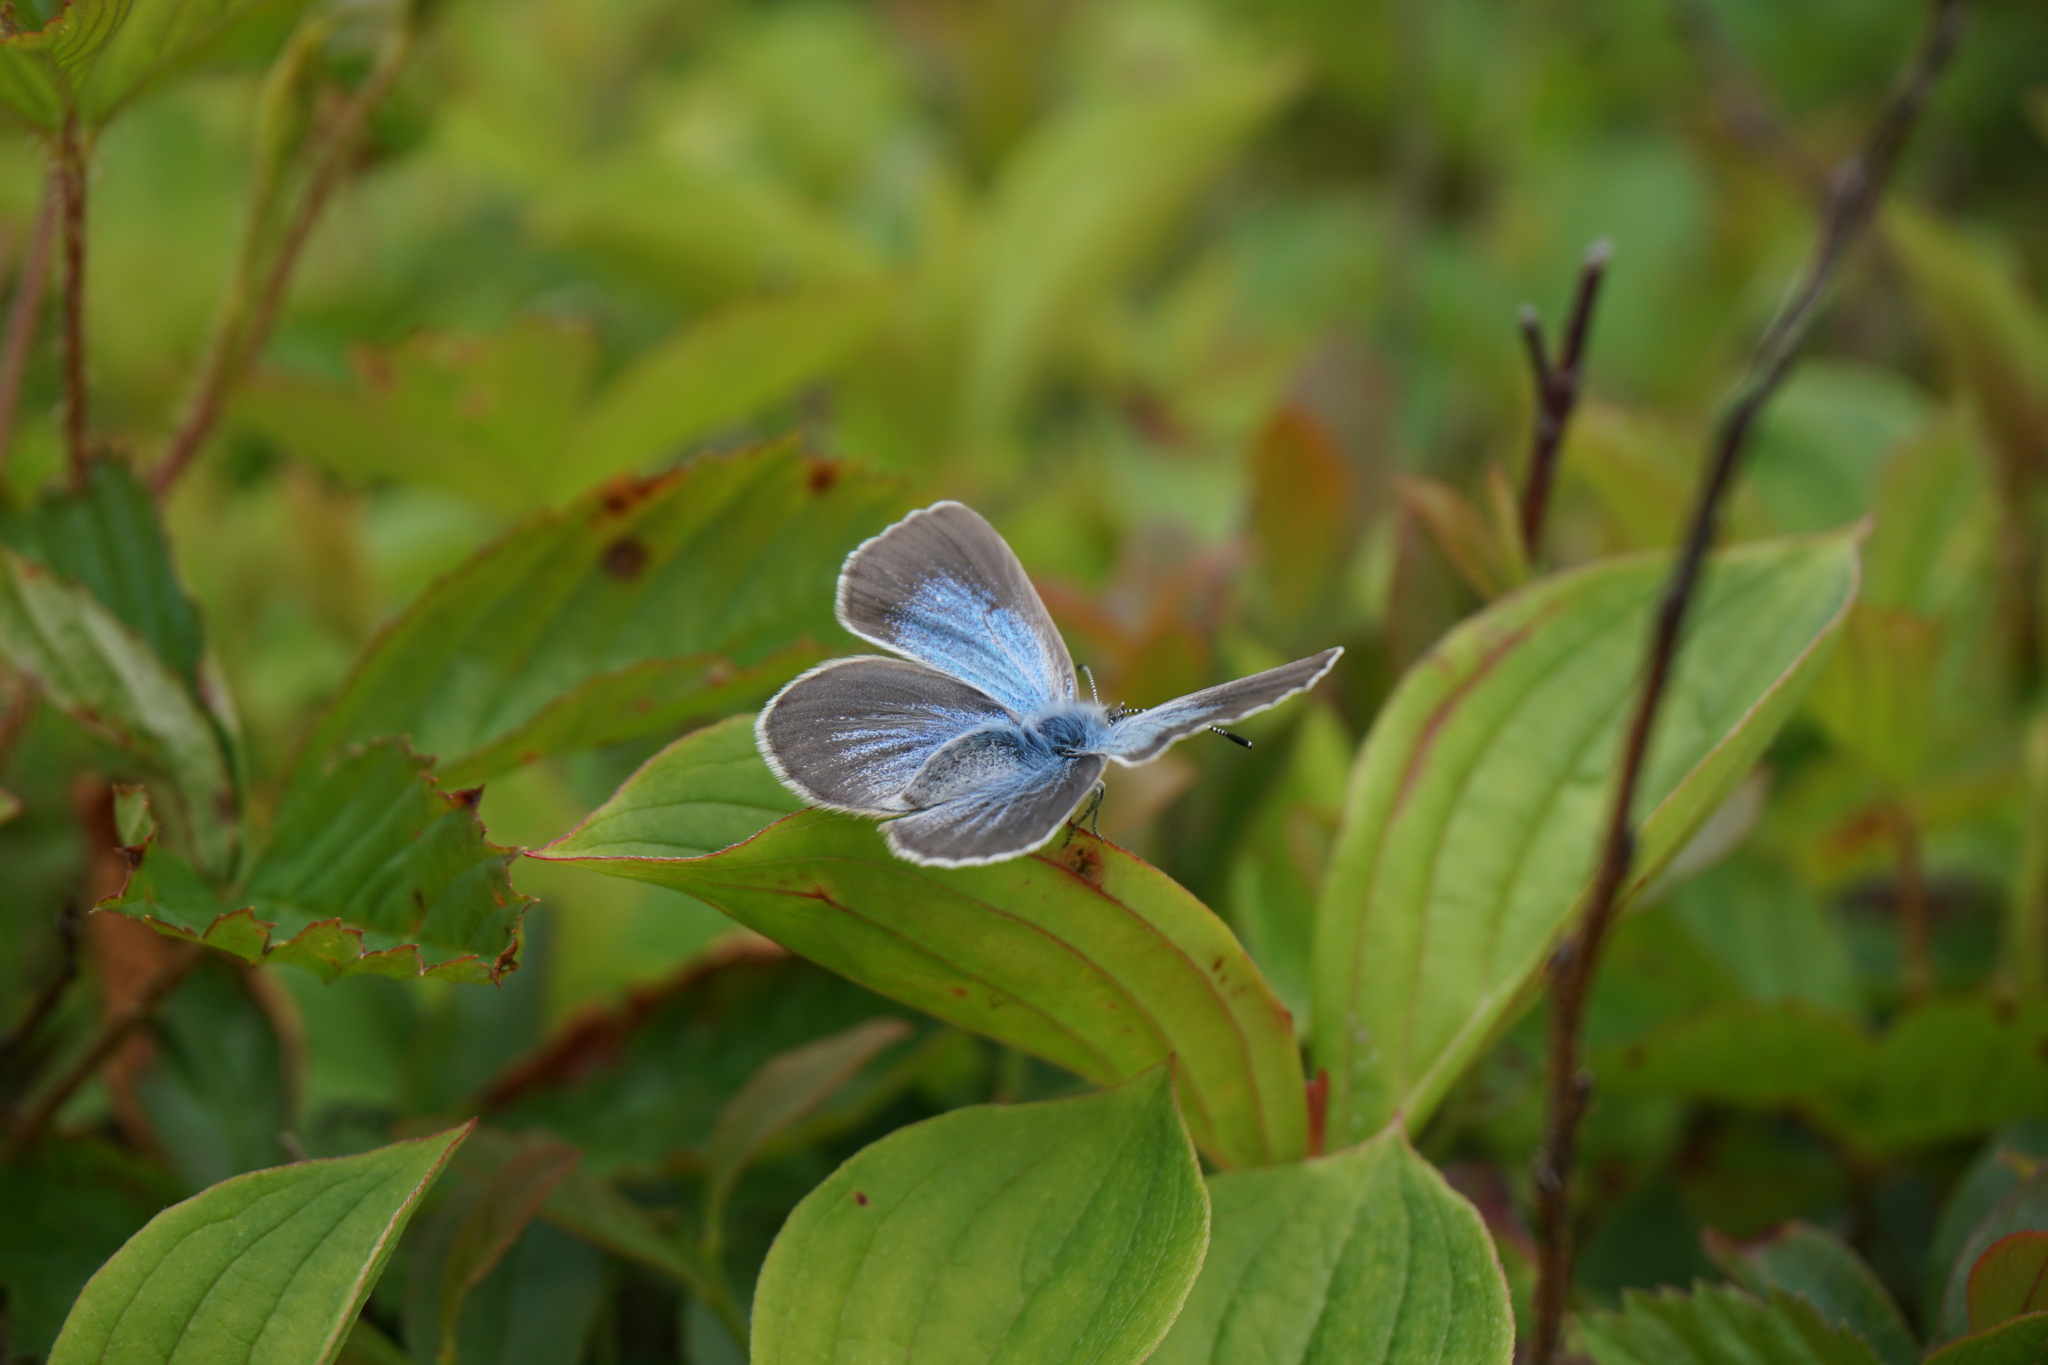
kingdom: Animalia
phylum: Arthropoda
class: Insecta
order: Lepidoptera
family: Lycaenidae
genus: Glaucopsyche
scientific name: Glaucopsyche lygdamus
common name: Silvery blue
